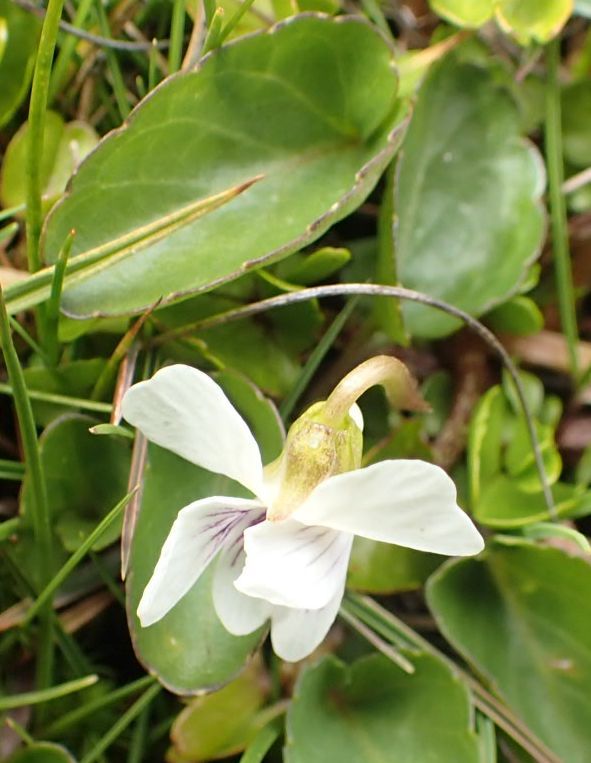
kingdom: Plantae
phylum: Tracheophyta
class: Magnoliopsida
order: Malpighiales
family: Violaceae
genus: Viola
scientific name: Viola cunninghamii
